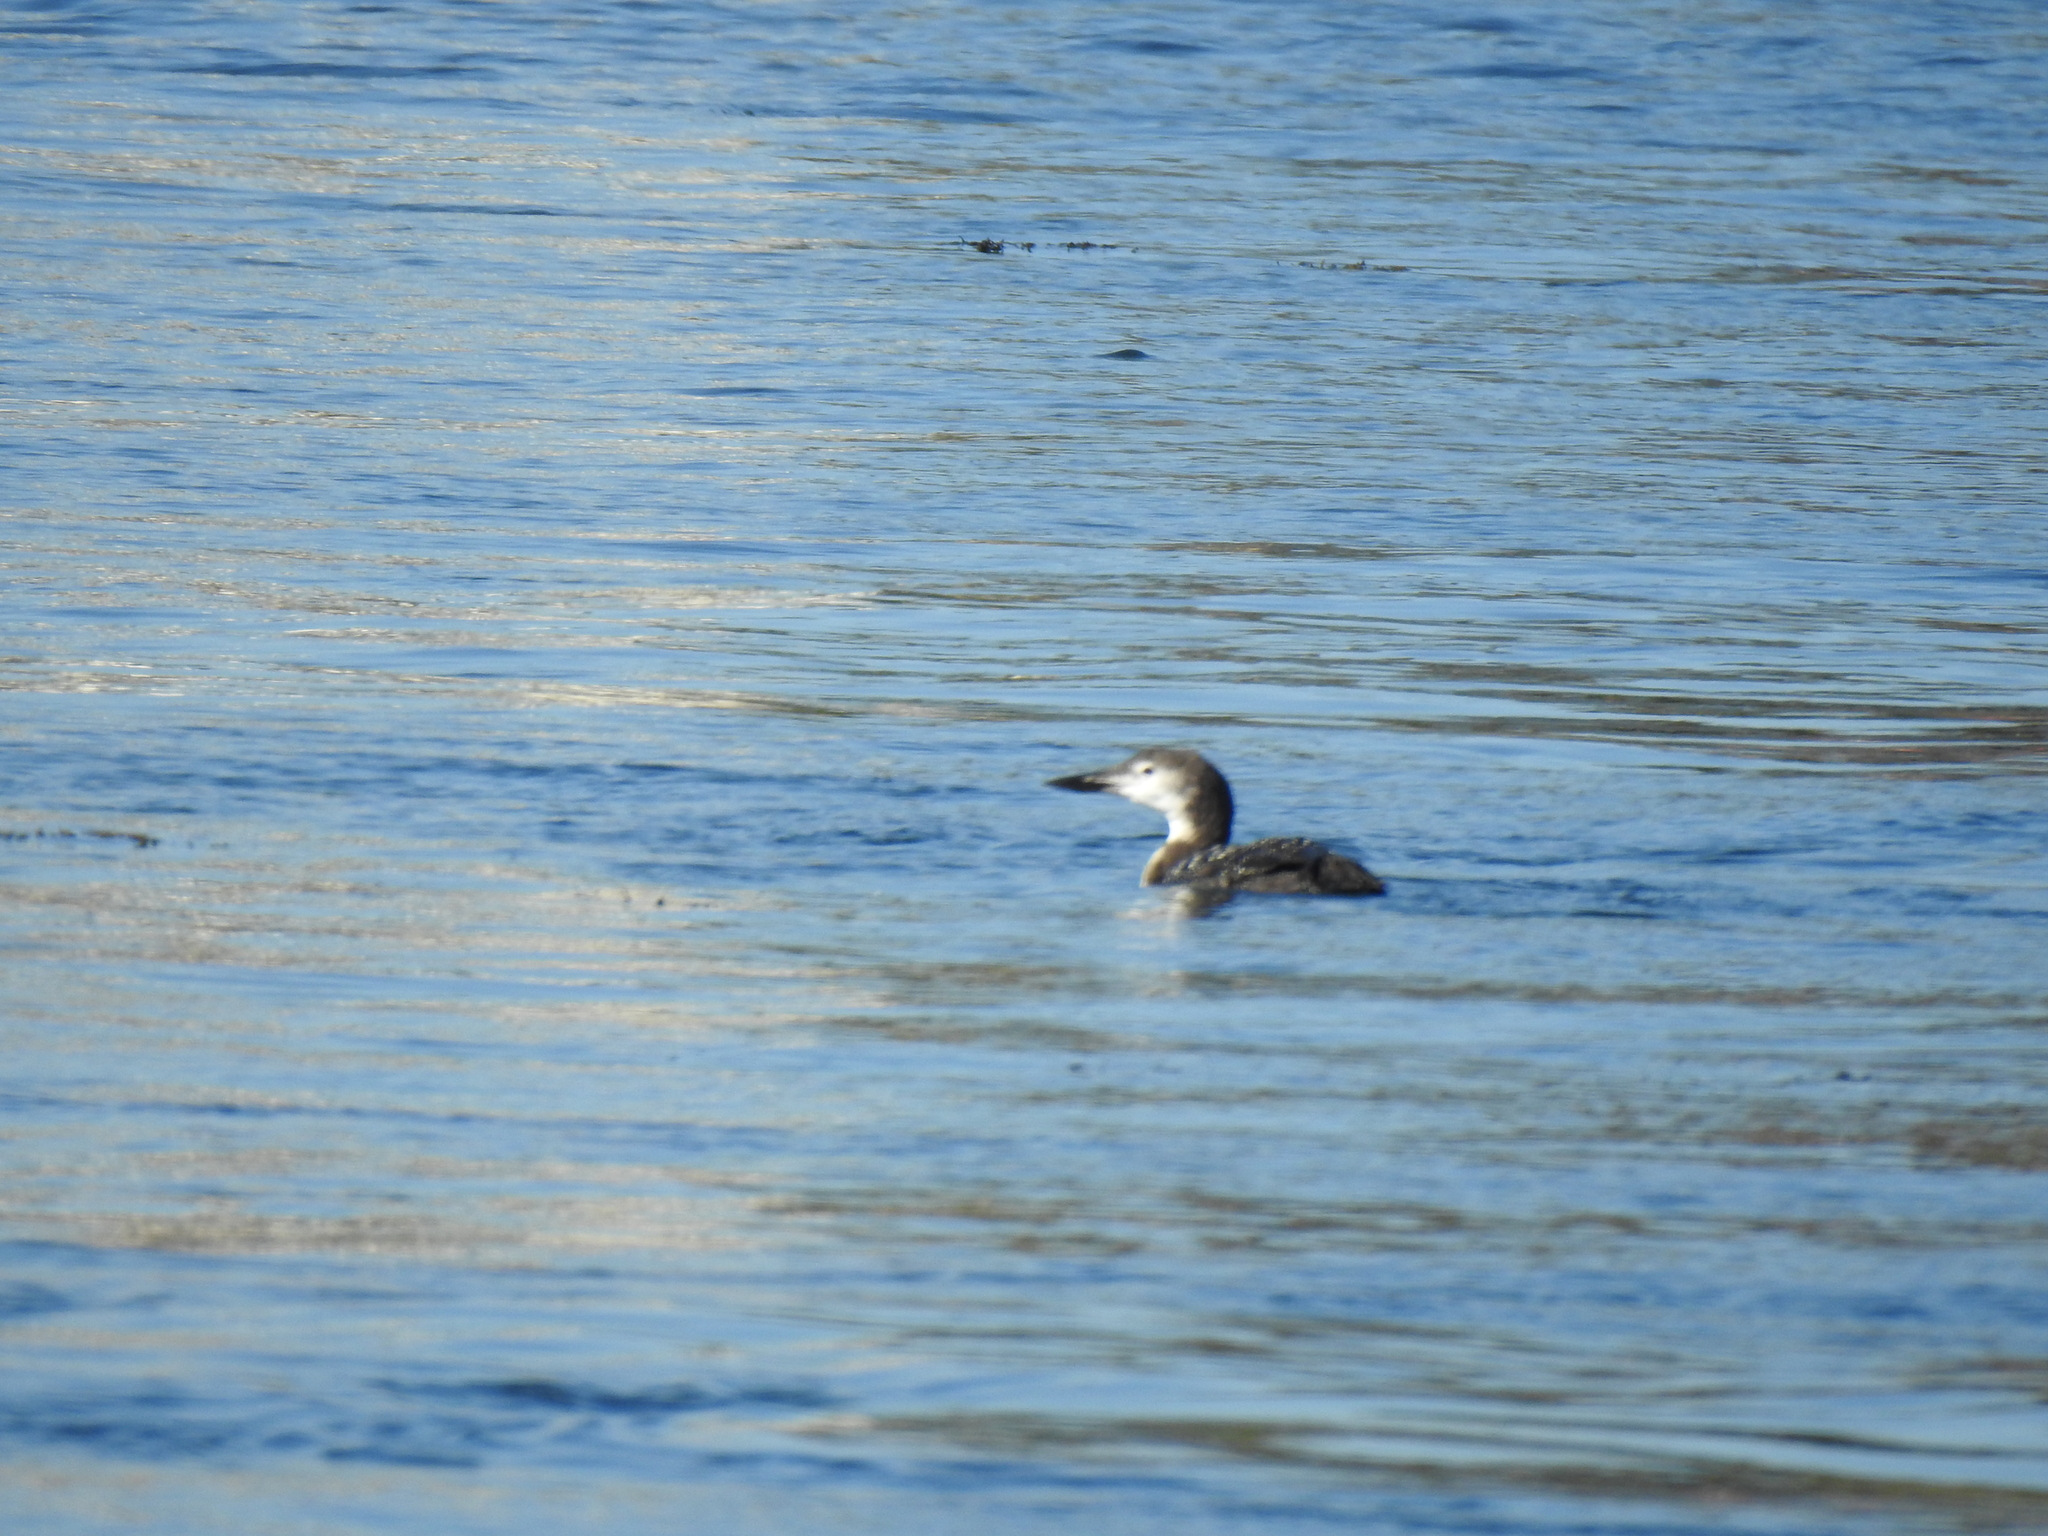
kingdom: Animalia
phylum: Chordata
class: Aves
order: Gaviiformes
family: Gaviidae
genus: Gavia
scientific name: Gavia immer
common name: Common loon
